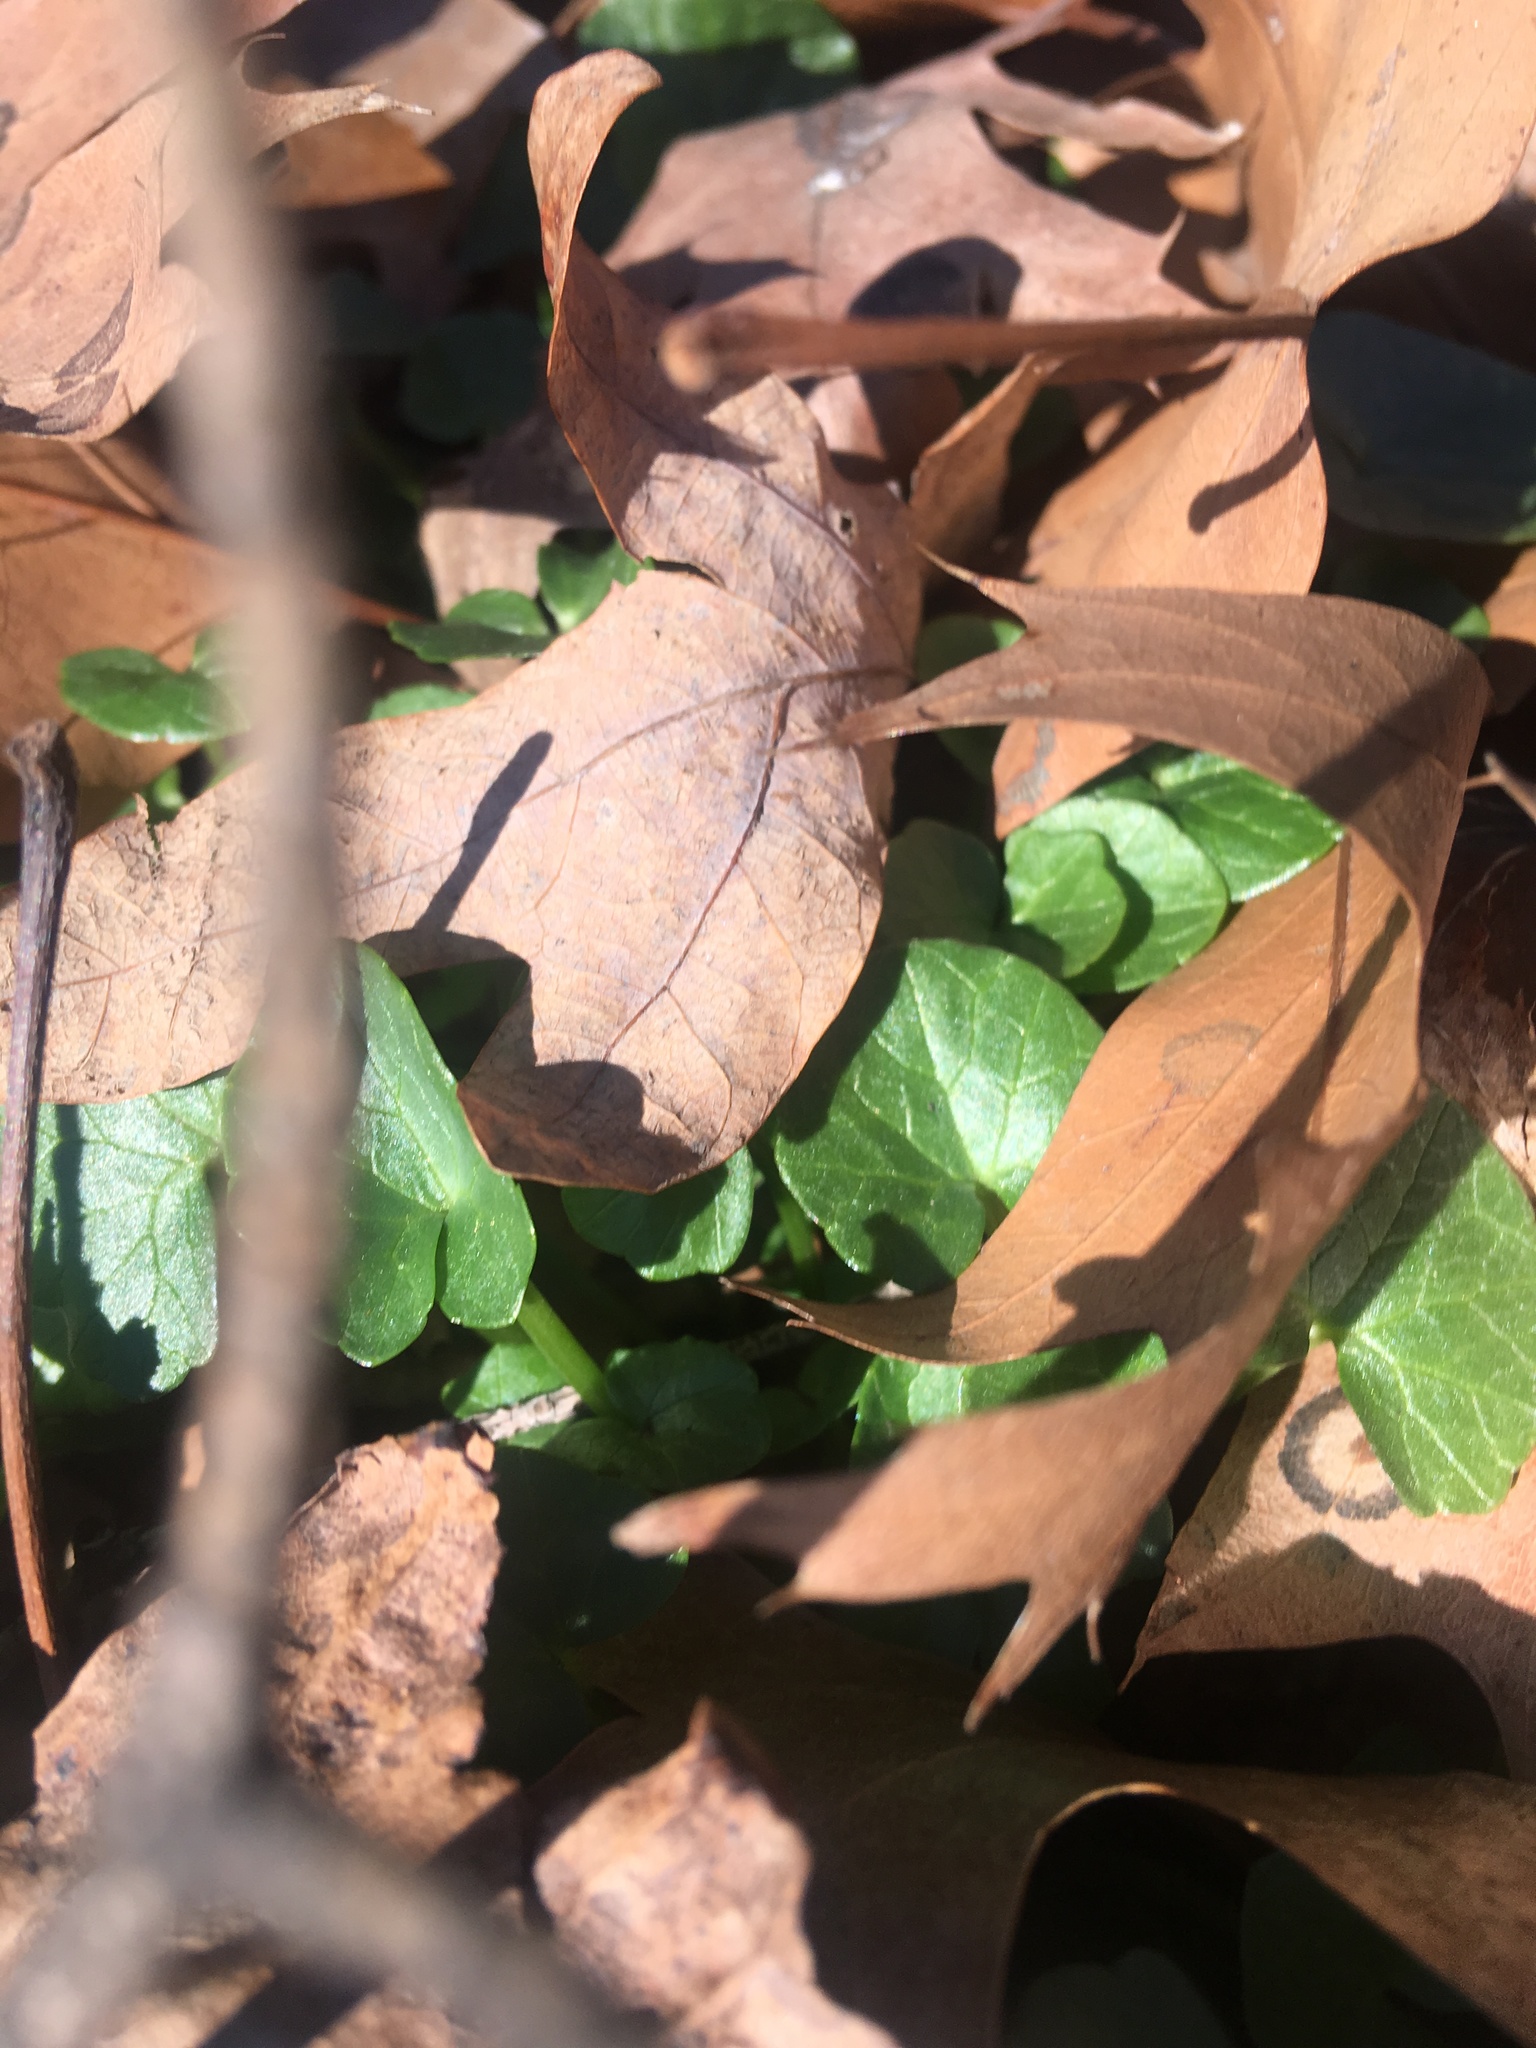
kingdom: Plantae
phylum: Tracheophyta
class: Magnoliopsida
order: Ranunculales
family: Ranunculaceae
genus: Ficaria
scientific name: Ficaria verna
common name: Lesser celandine
